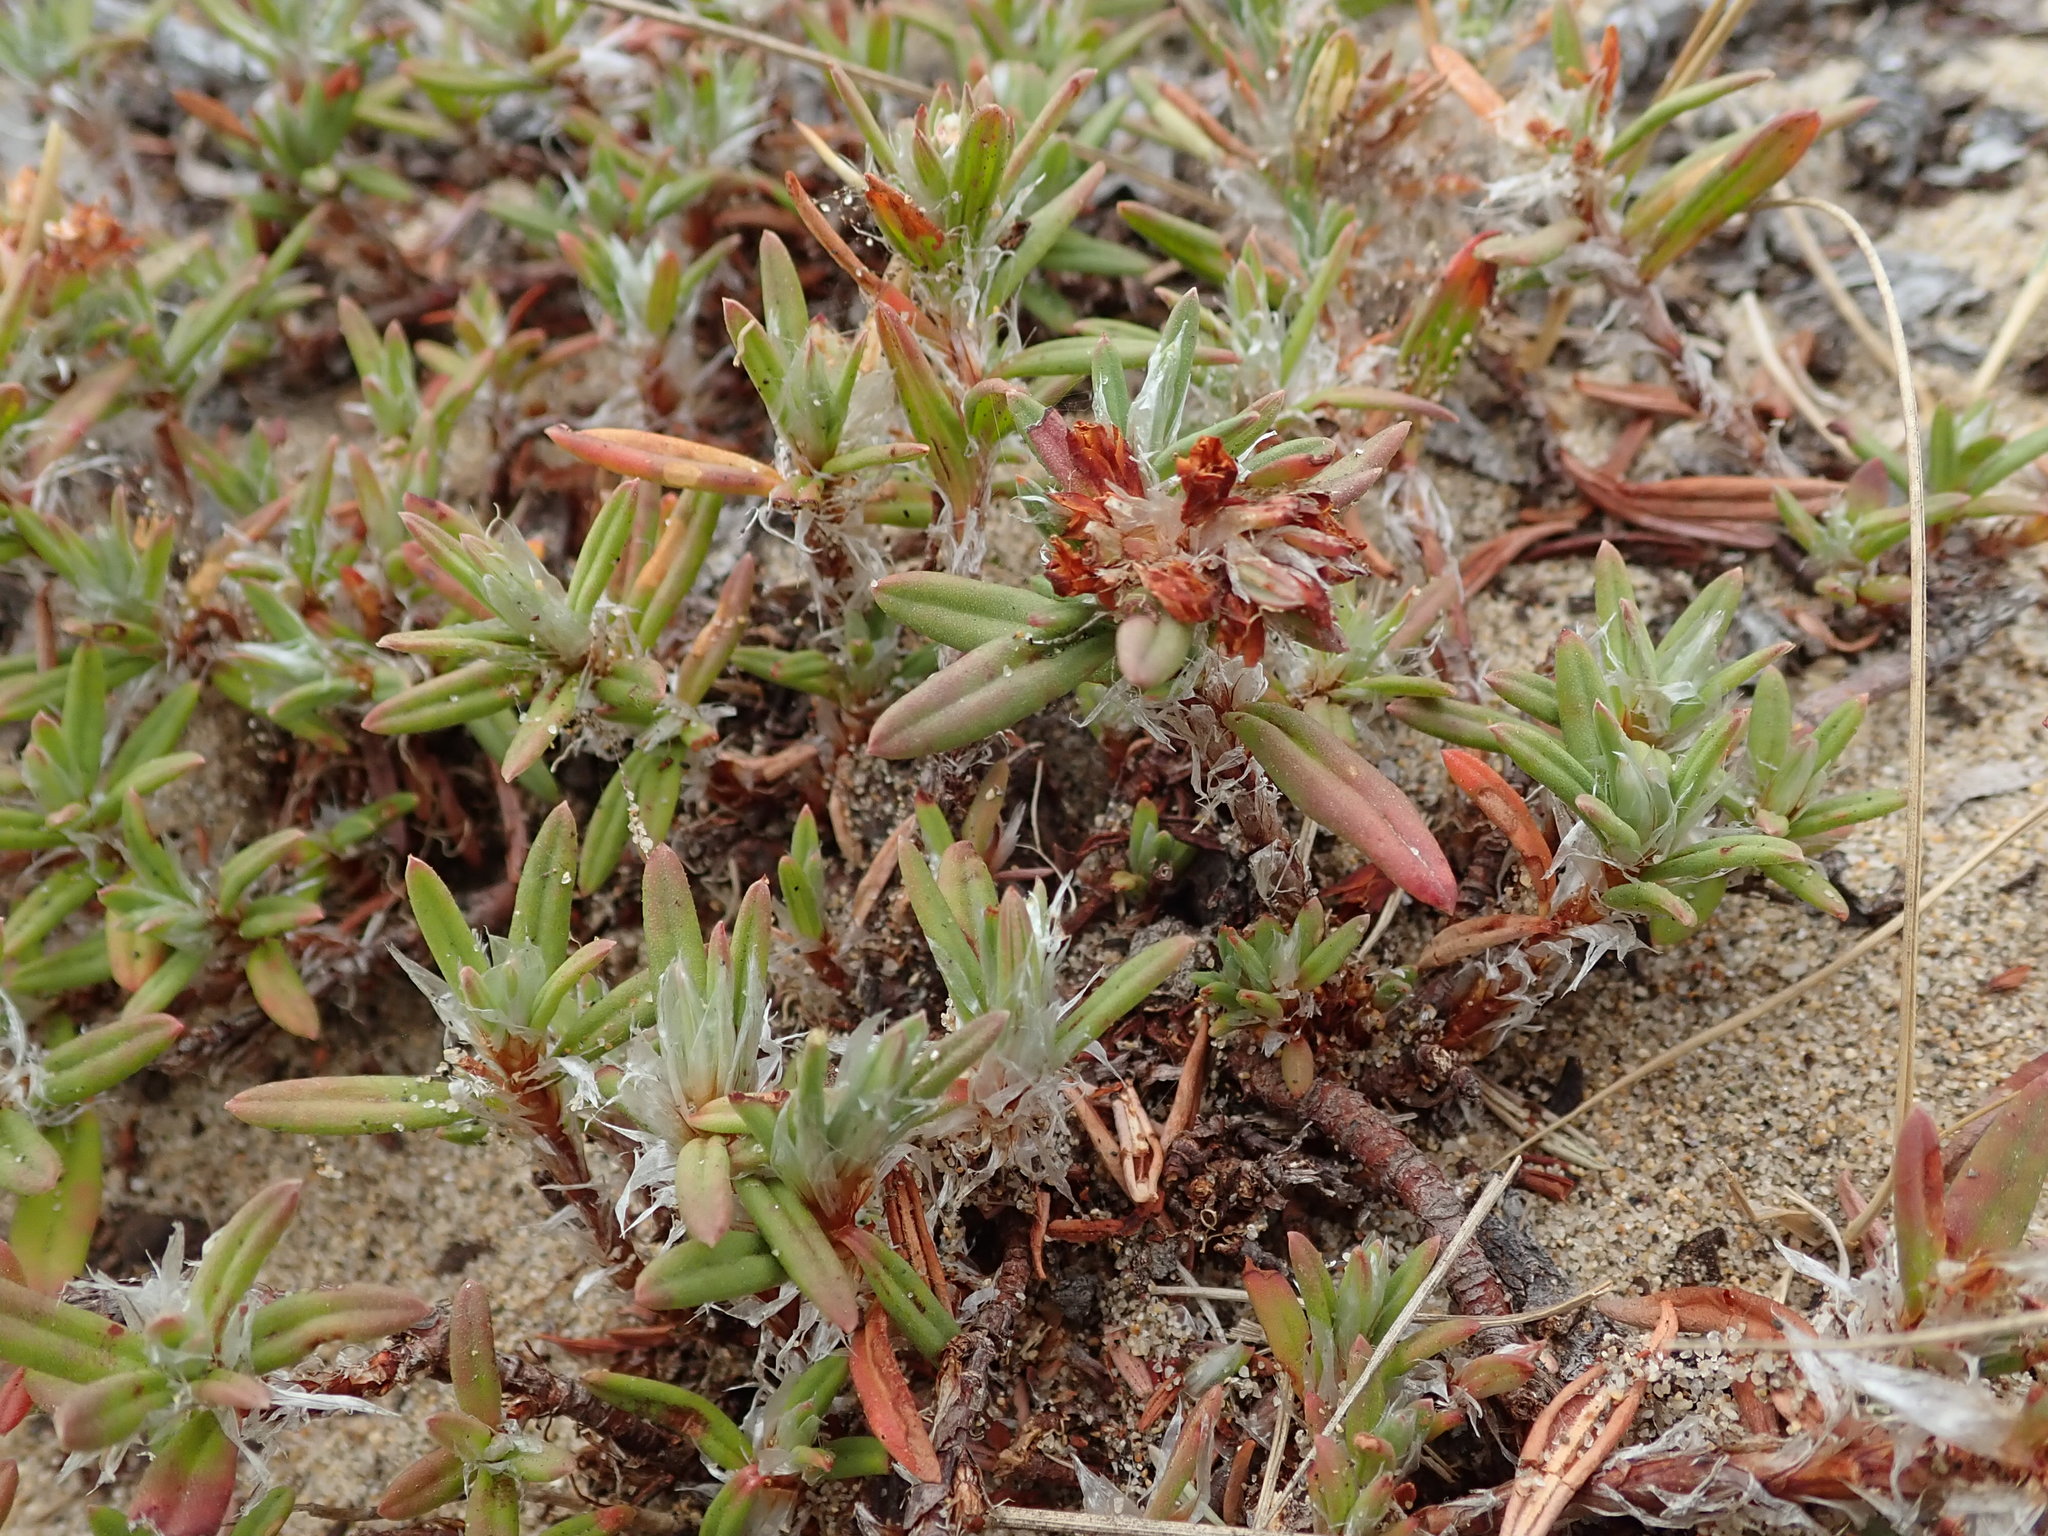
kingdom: Plantae
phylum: Tracheophyta
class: Magnoliopsida
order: Caryophyllales
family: Polygonaceae
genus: Polygonum
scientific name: Polygonum paronychia
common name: Dune knotweed
